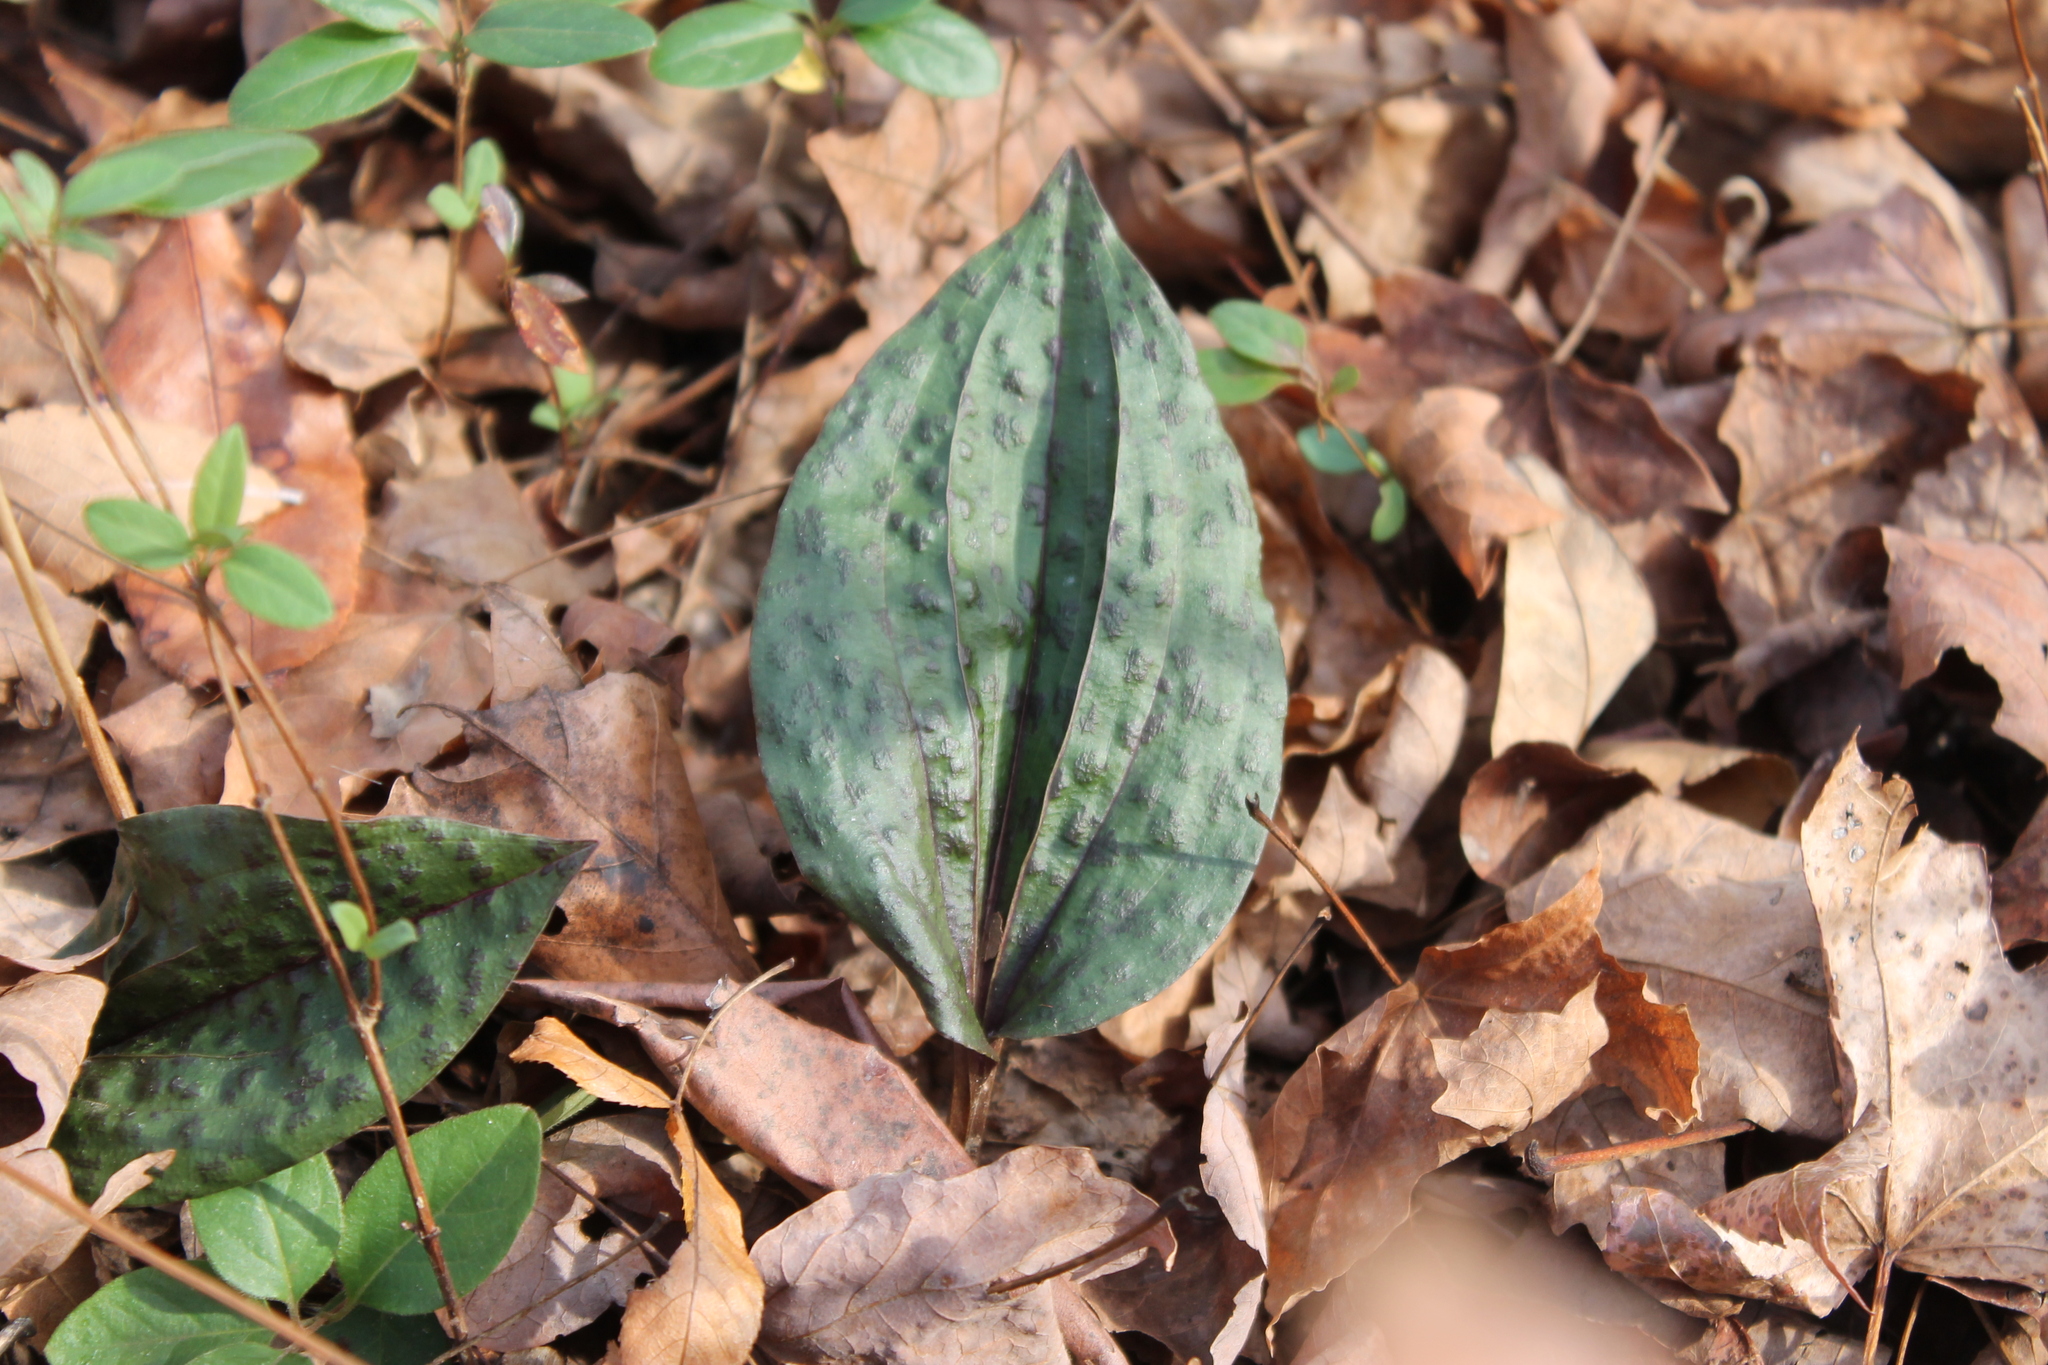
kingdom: Plantae
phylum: Tracheophyta
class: Liliopsida
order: Asparagales
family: Orchidaceae
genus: Tipularia
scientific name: Tipularia discolor
